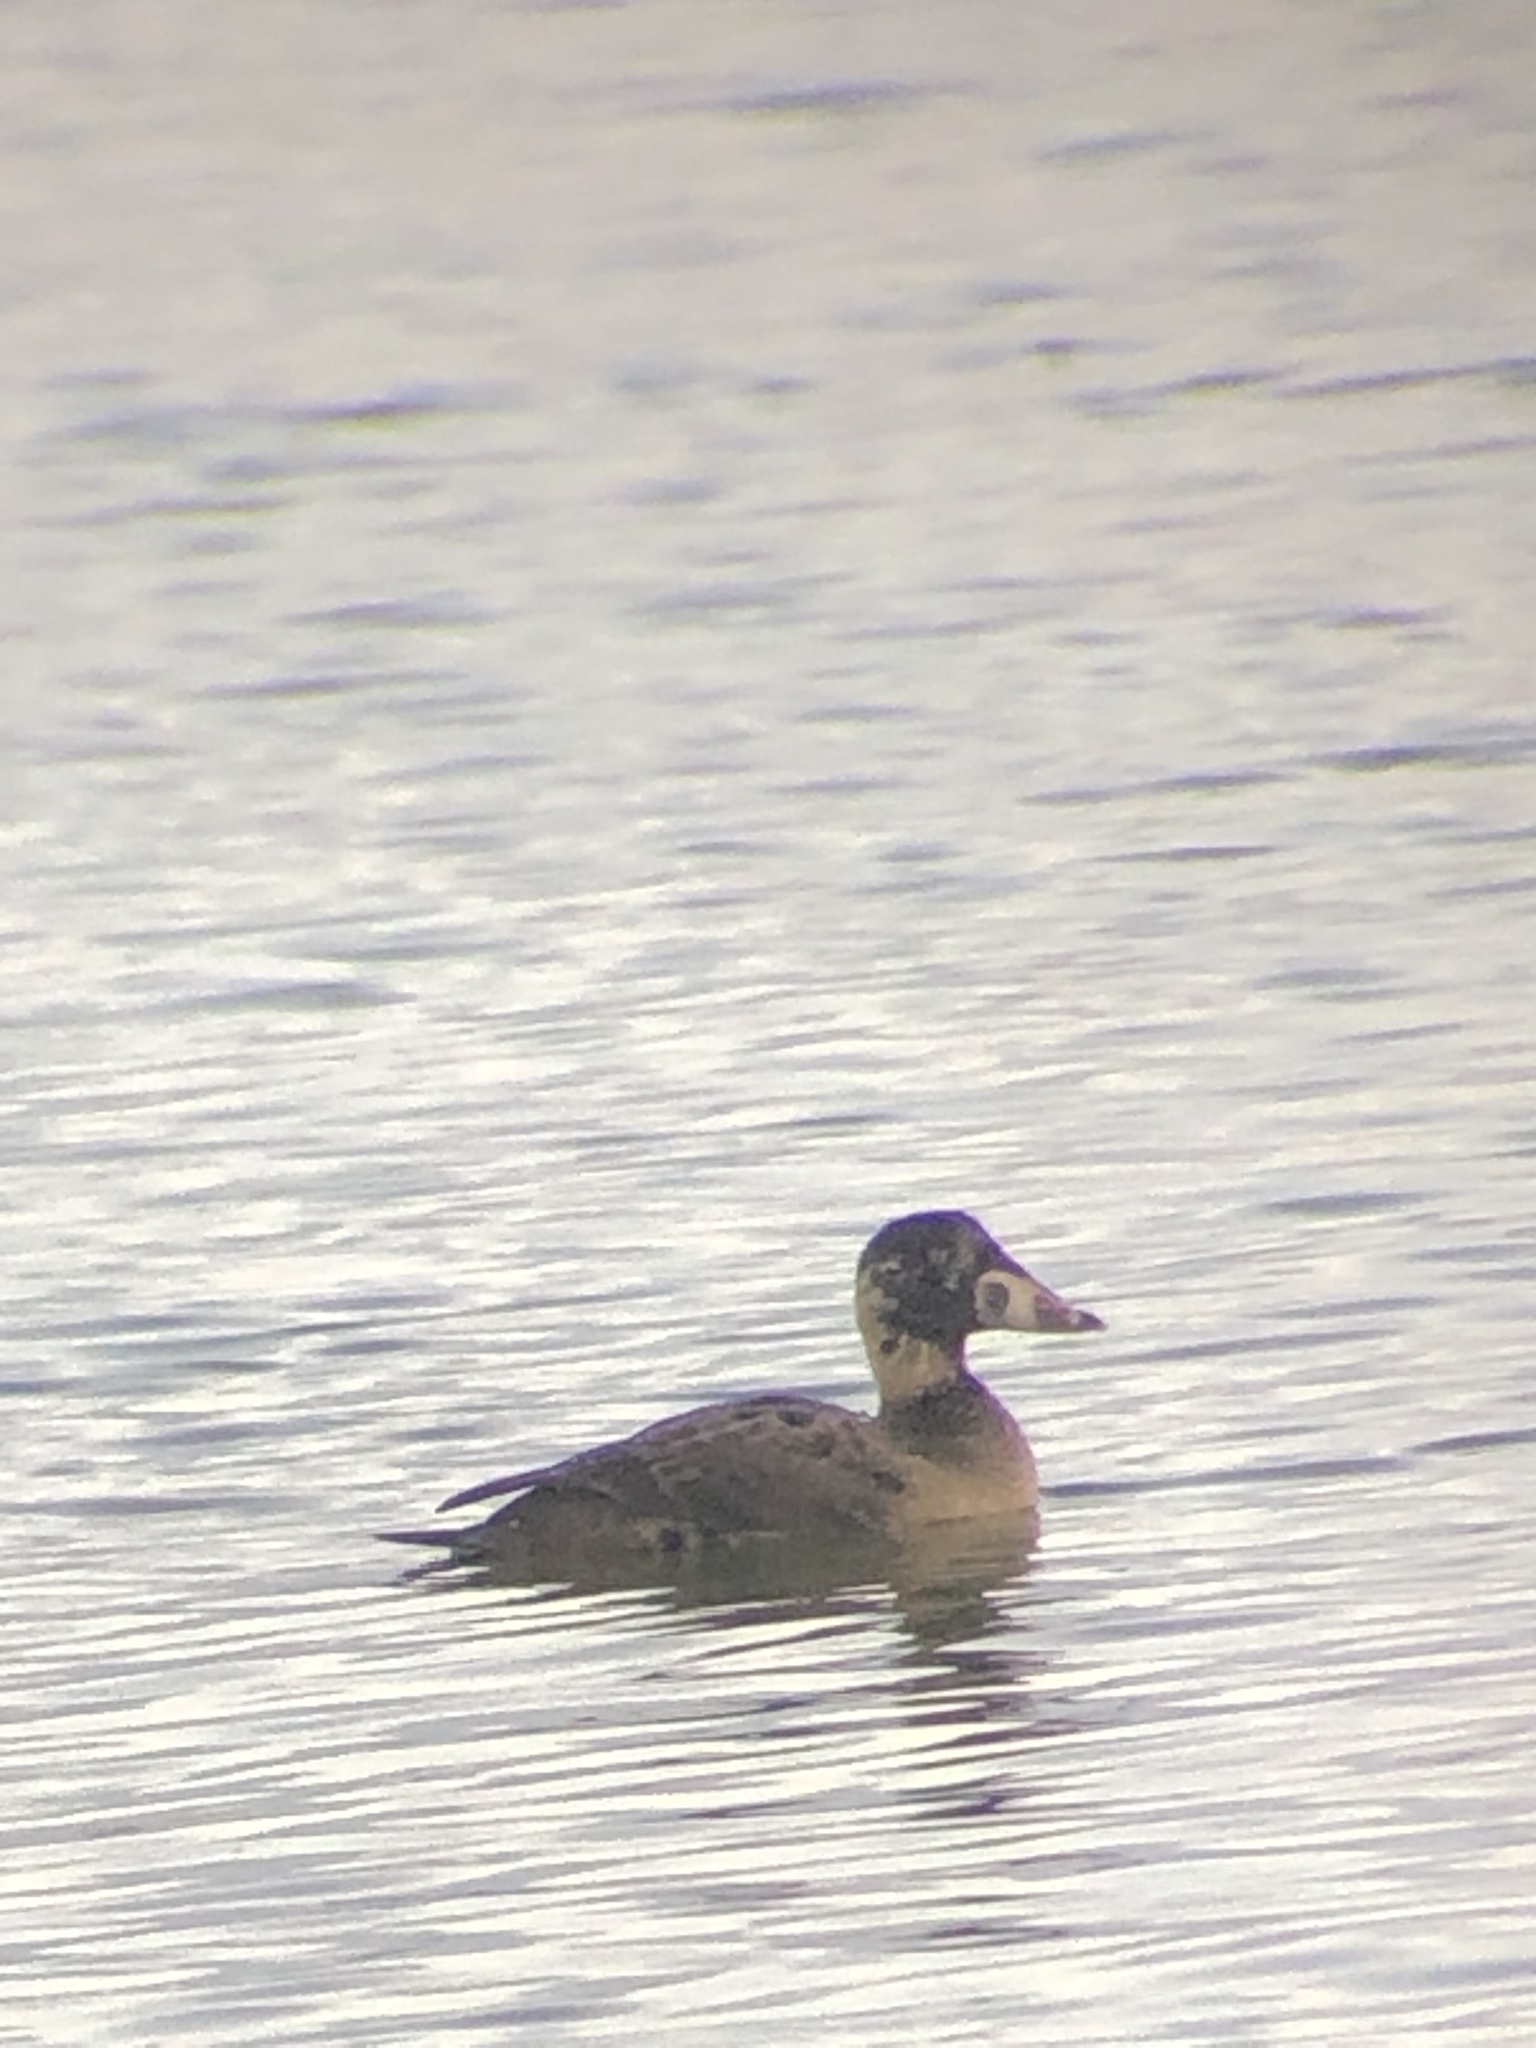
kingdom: Animalia
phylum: Chordata
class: Aves
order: Anseriformes
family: Anatidae
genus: Melanitta
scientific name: Melanitta perspicillata
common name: Surf scoter
